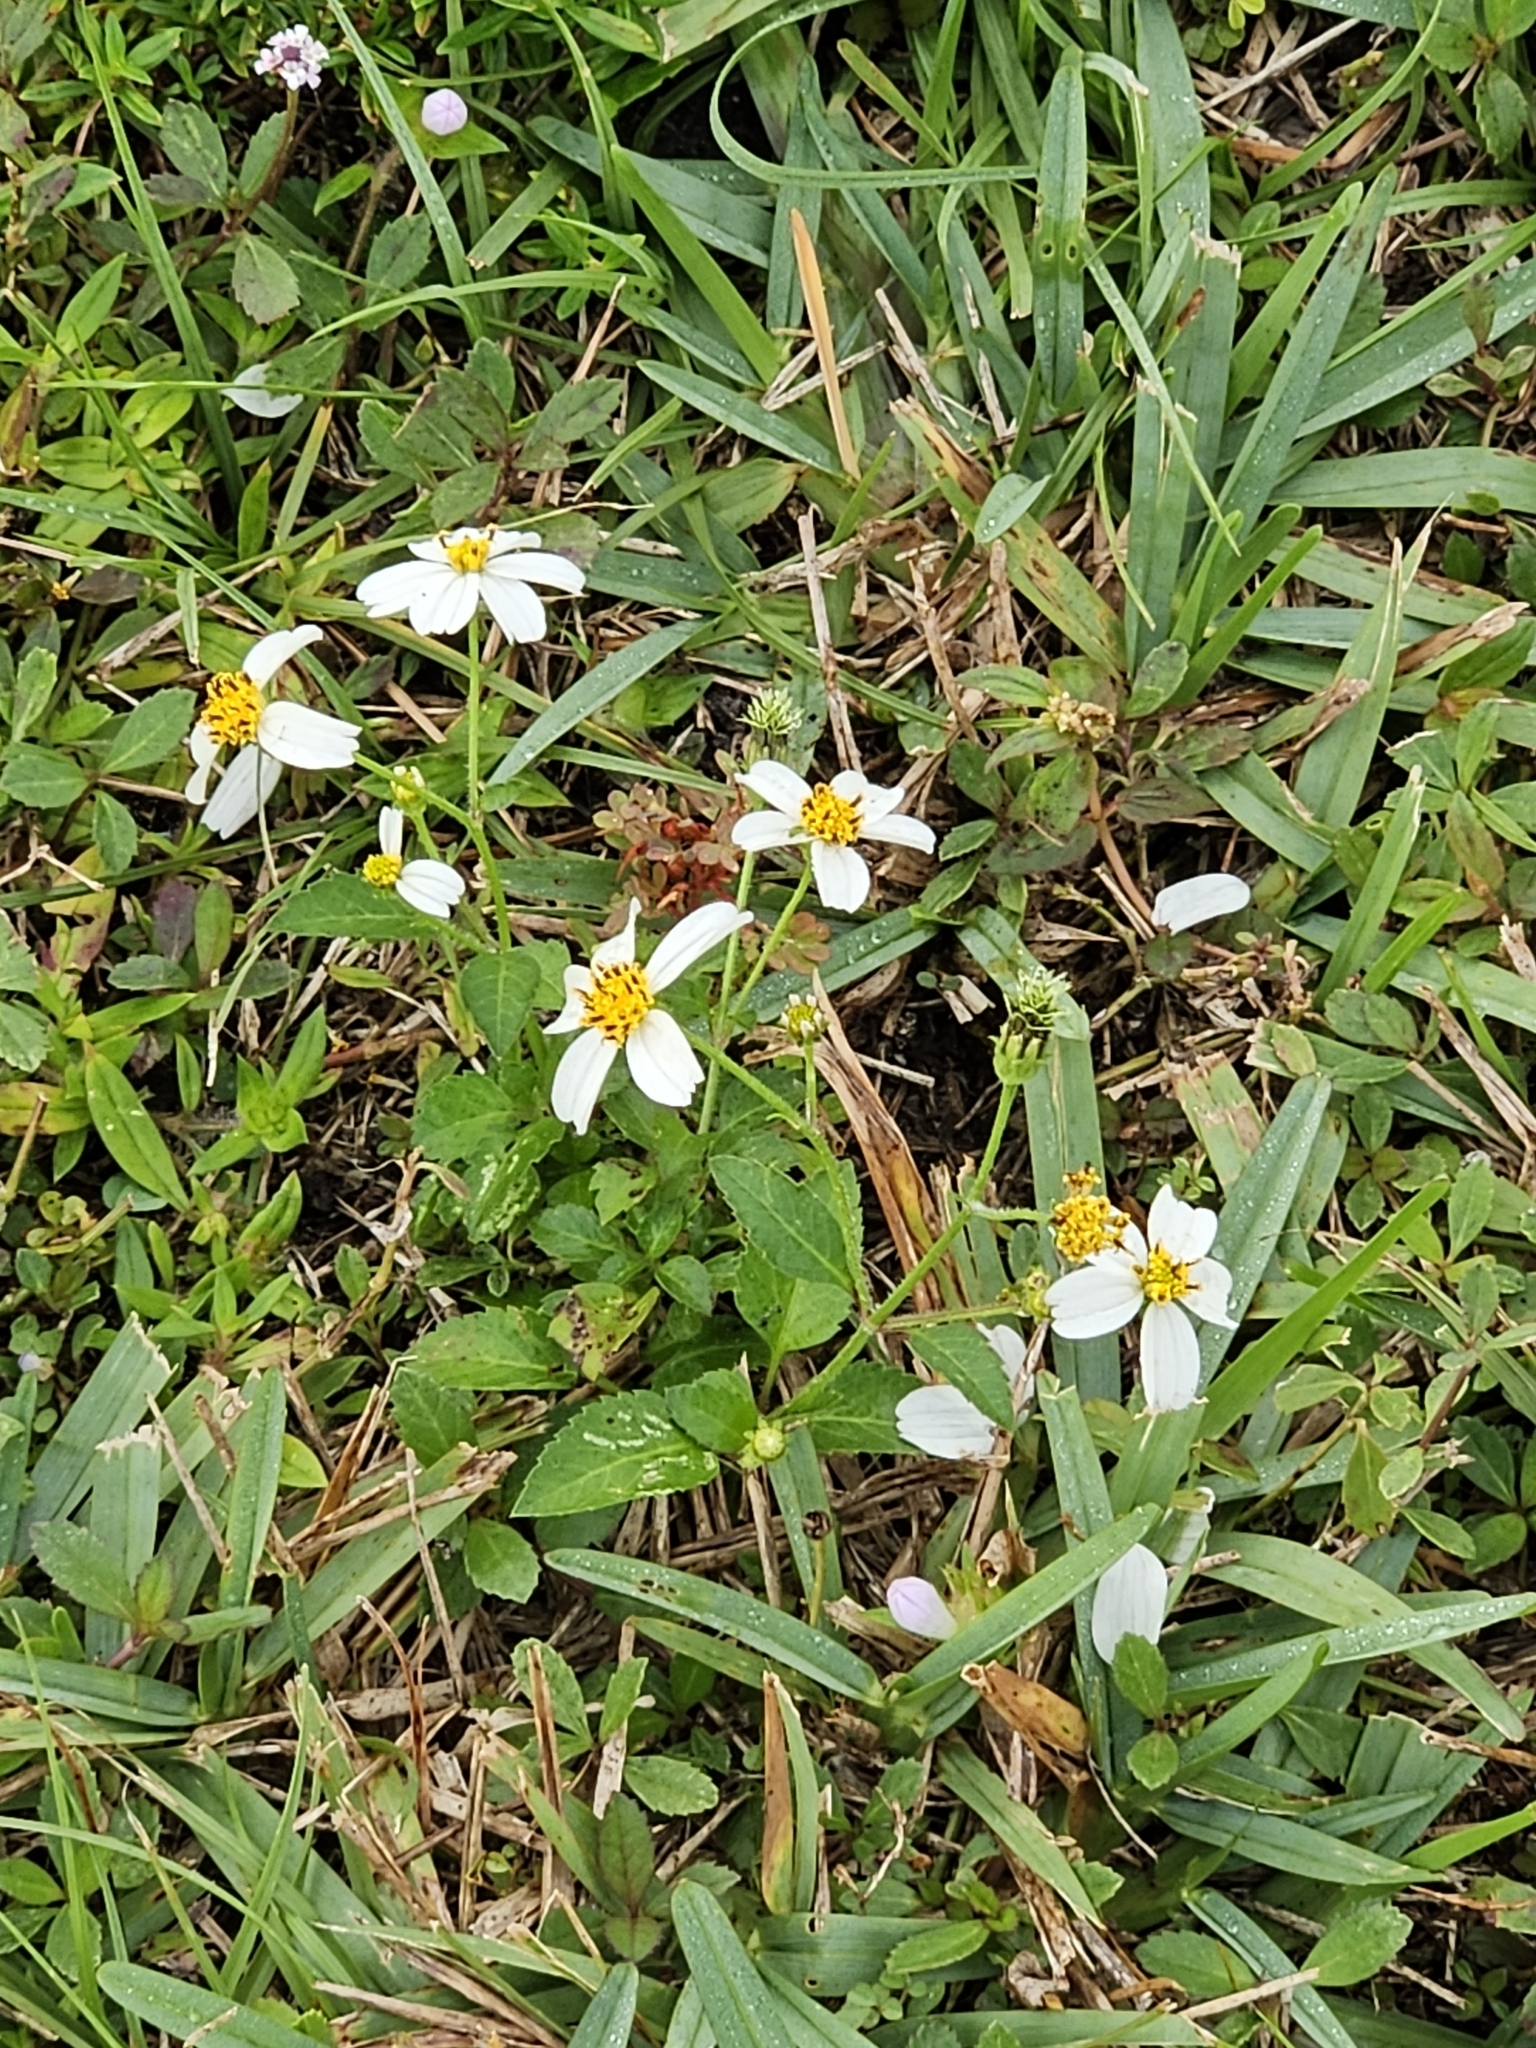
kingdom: Plantae
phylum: Tracheophyta
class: Magnoliopsida
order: Asterales
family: Asteraceae
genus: Bidens
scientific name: Bidens alba
